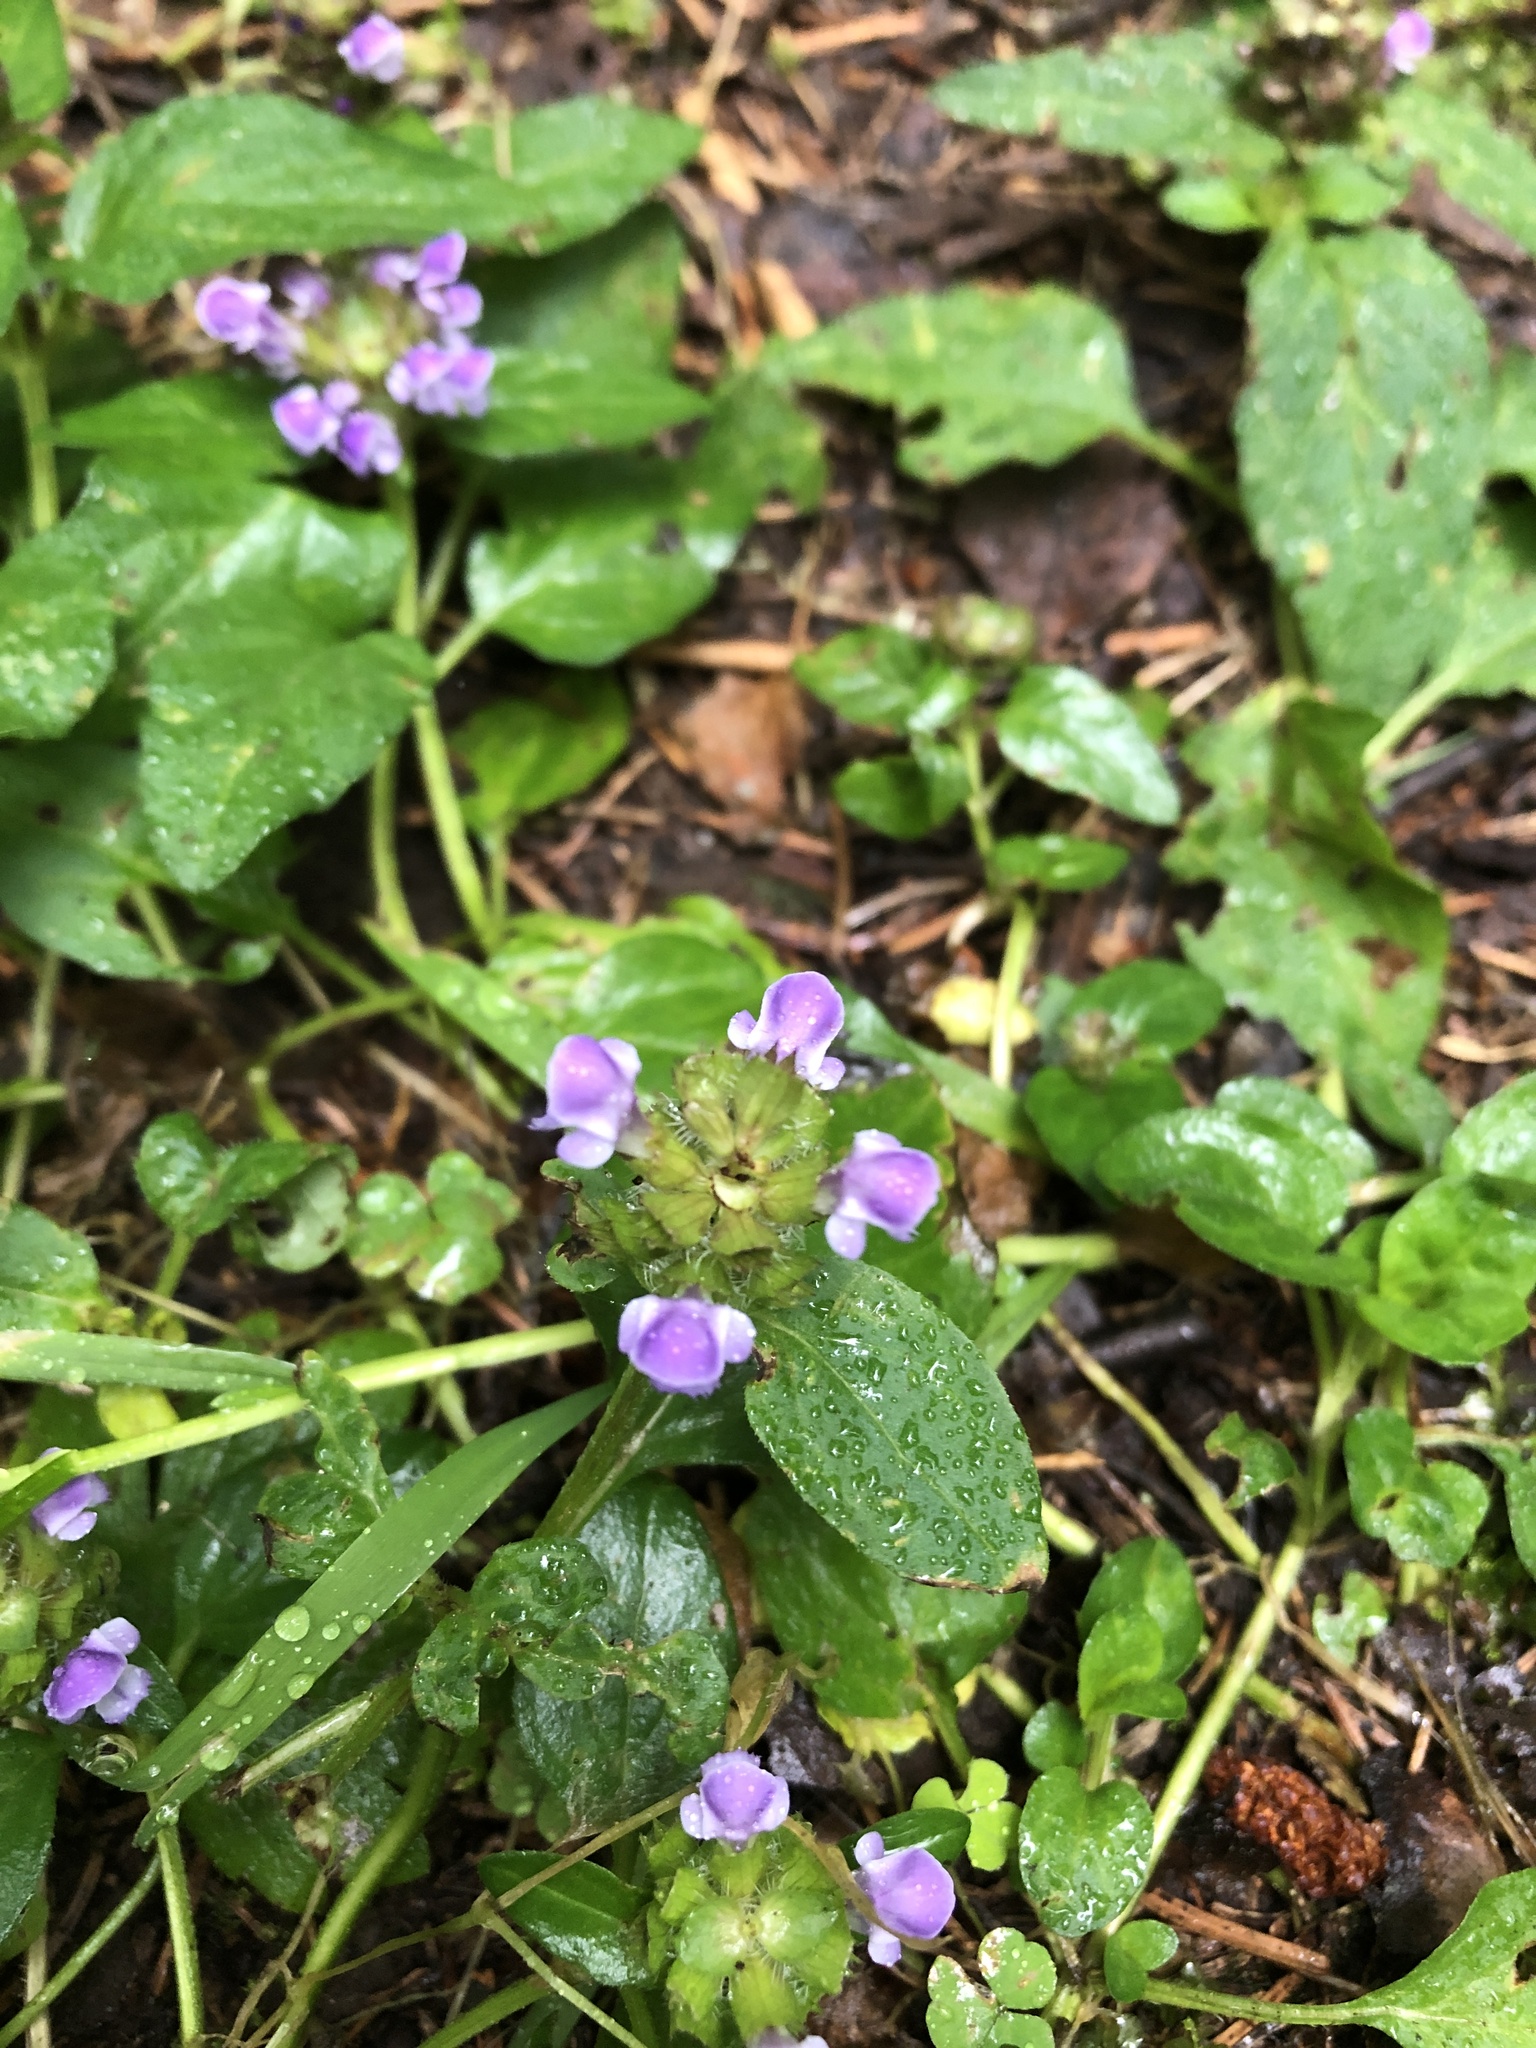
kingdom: Plantae
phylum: Tracheophyta
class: Magnoliopsida
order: Lamiales
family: Lamiaceae
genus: Prunella
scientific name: Prunella vulgaris
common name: Heal-all
